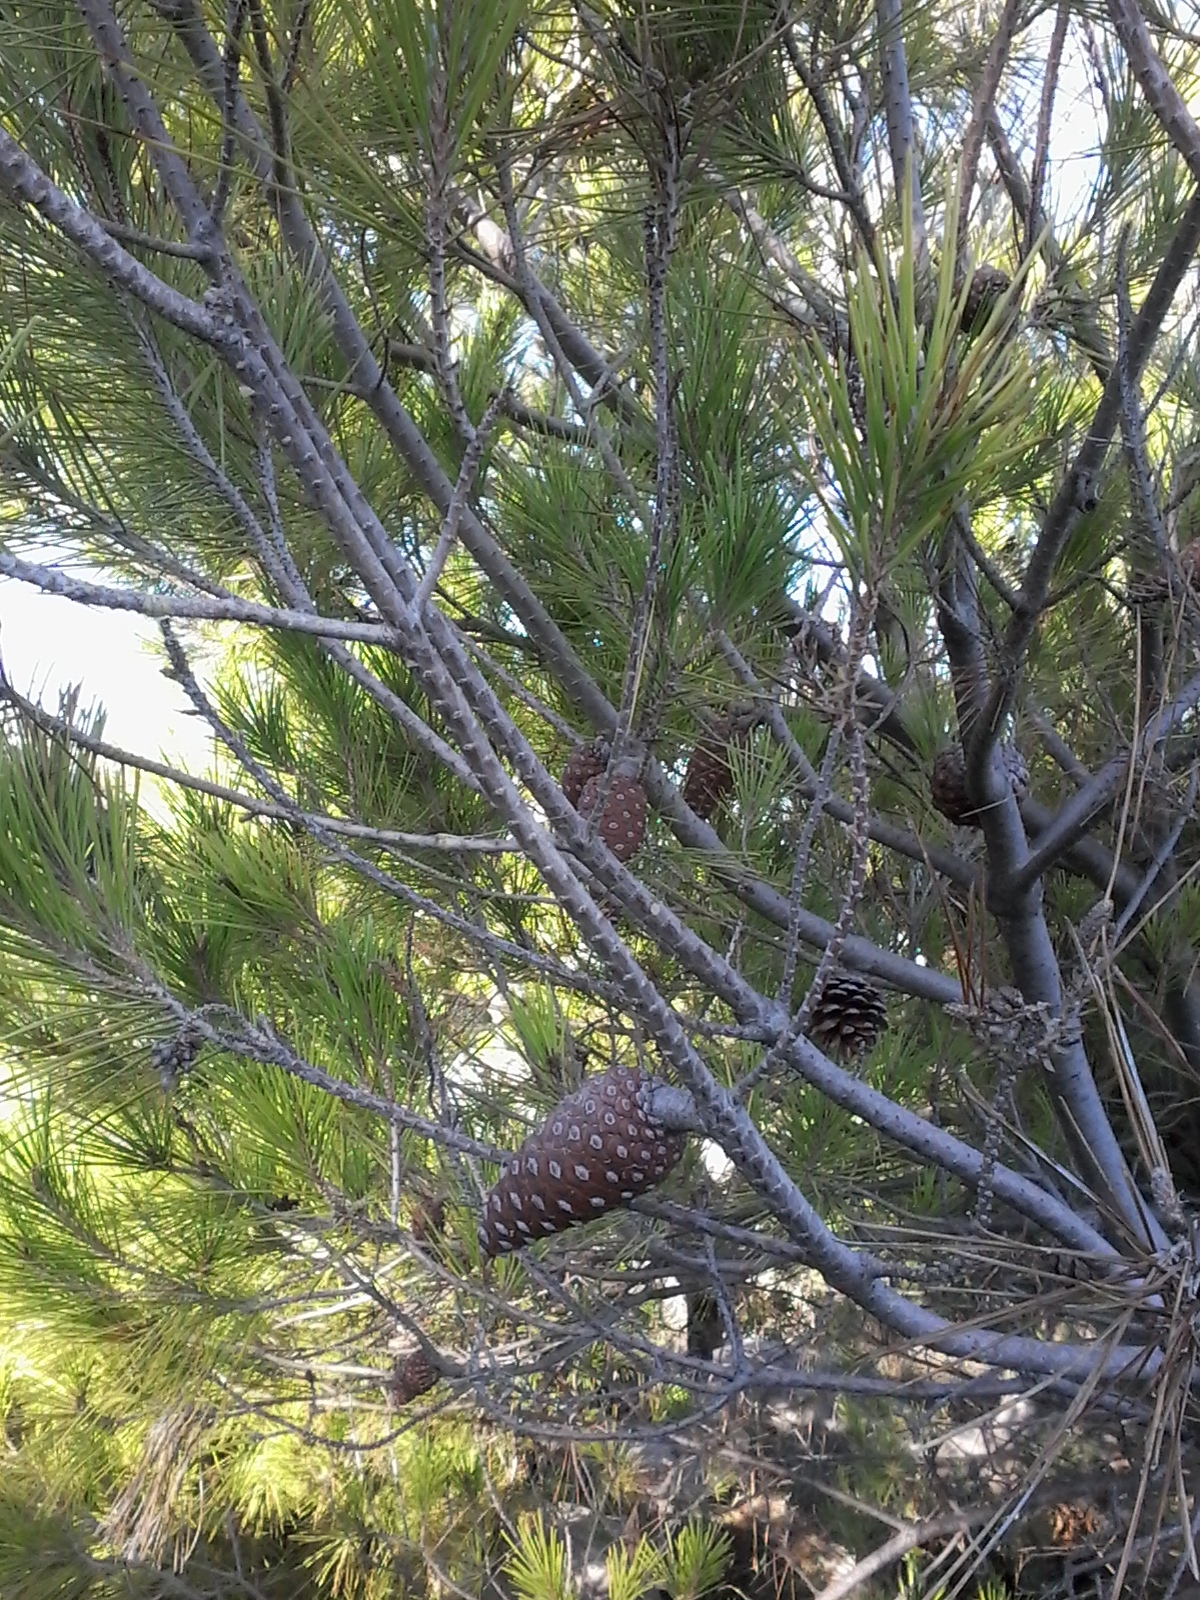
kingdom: Plantae
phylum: Tracheophyta
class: Pinopsida
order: Pinales
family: Pinaceae
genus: Pinus
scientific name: Pinus halepensis
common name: Aleppo pine
